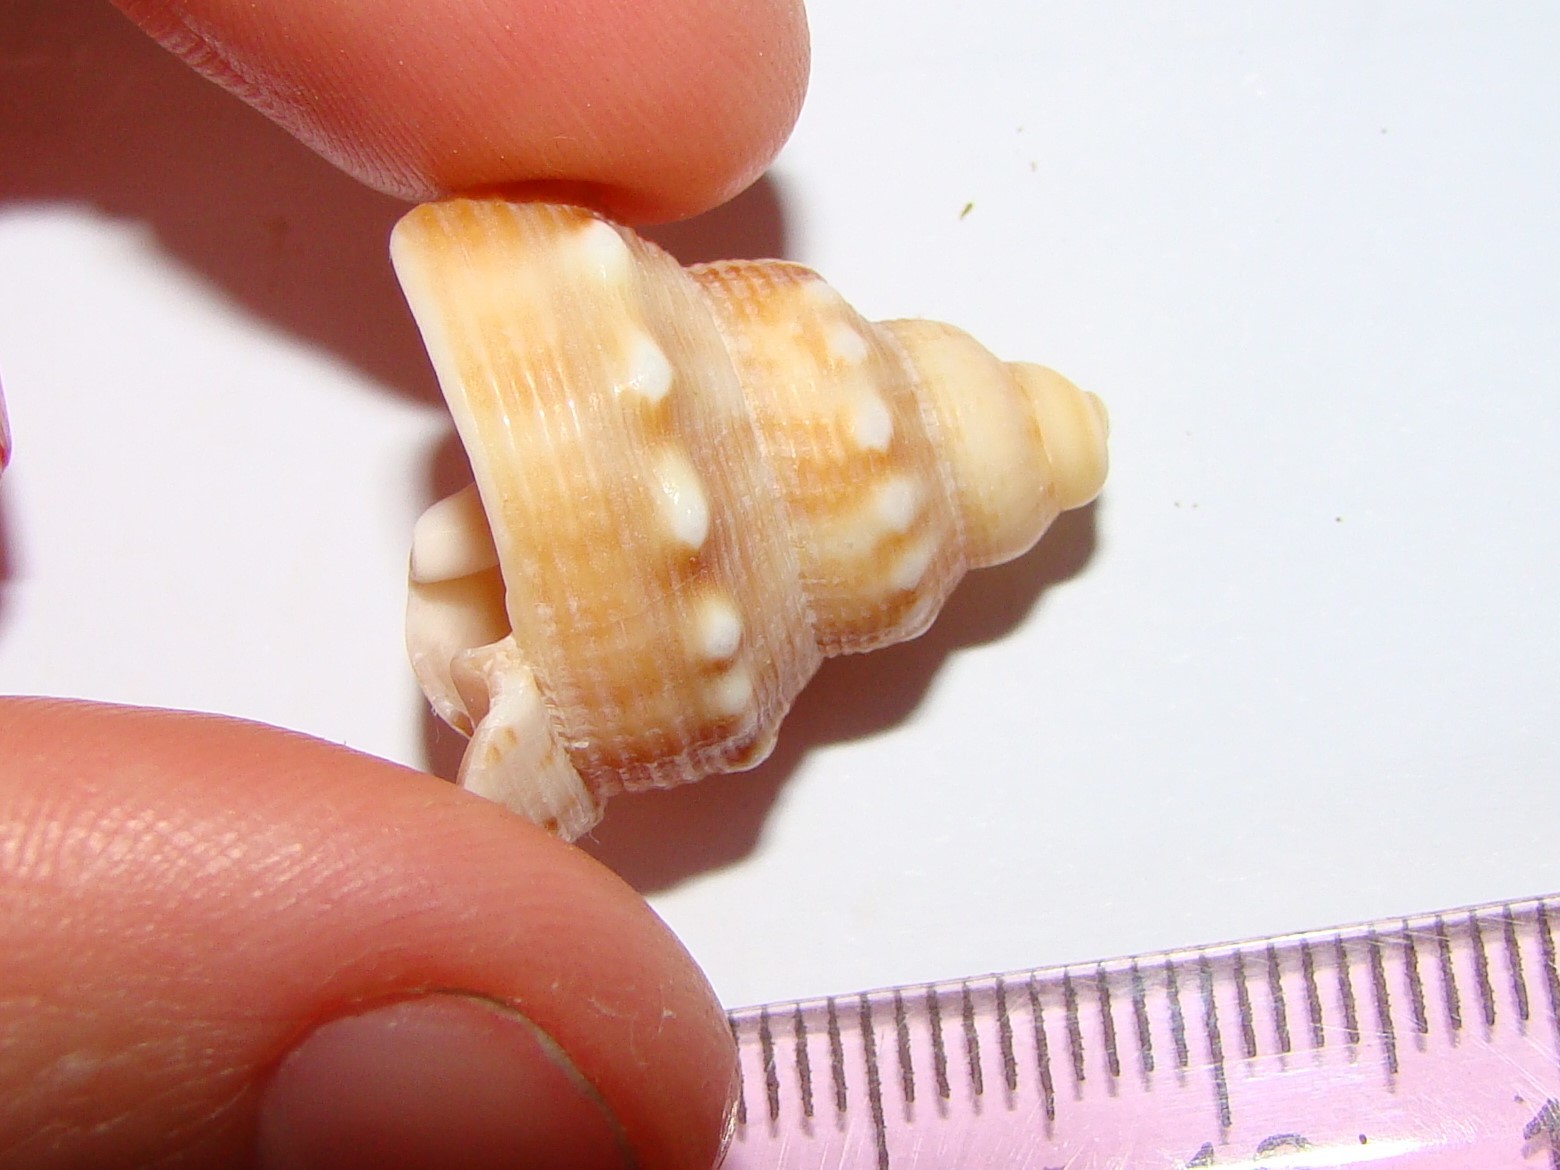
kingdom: Animalia
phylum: Mollusca
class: Gastropoda
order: Littorinimorpha
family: Struthiolariidae
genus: Struthiolaria
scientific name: Struthiolaria papulosa
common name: Large ostrich foot
